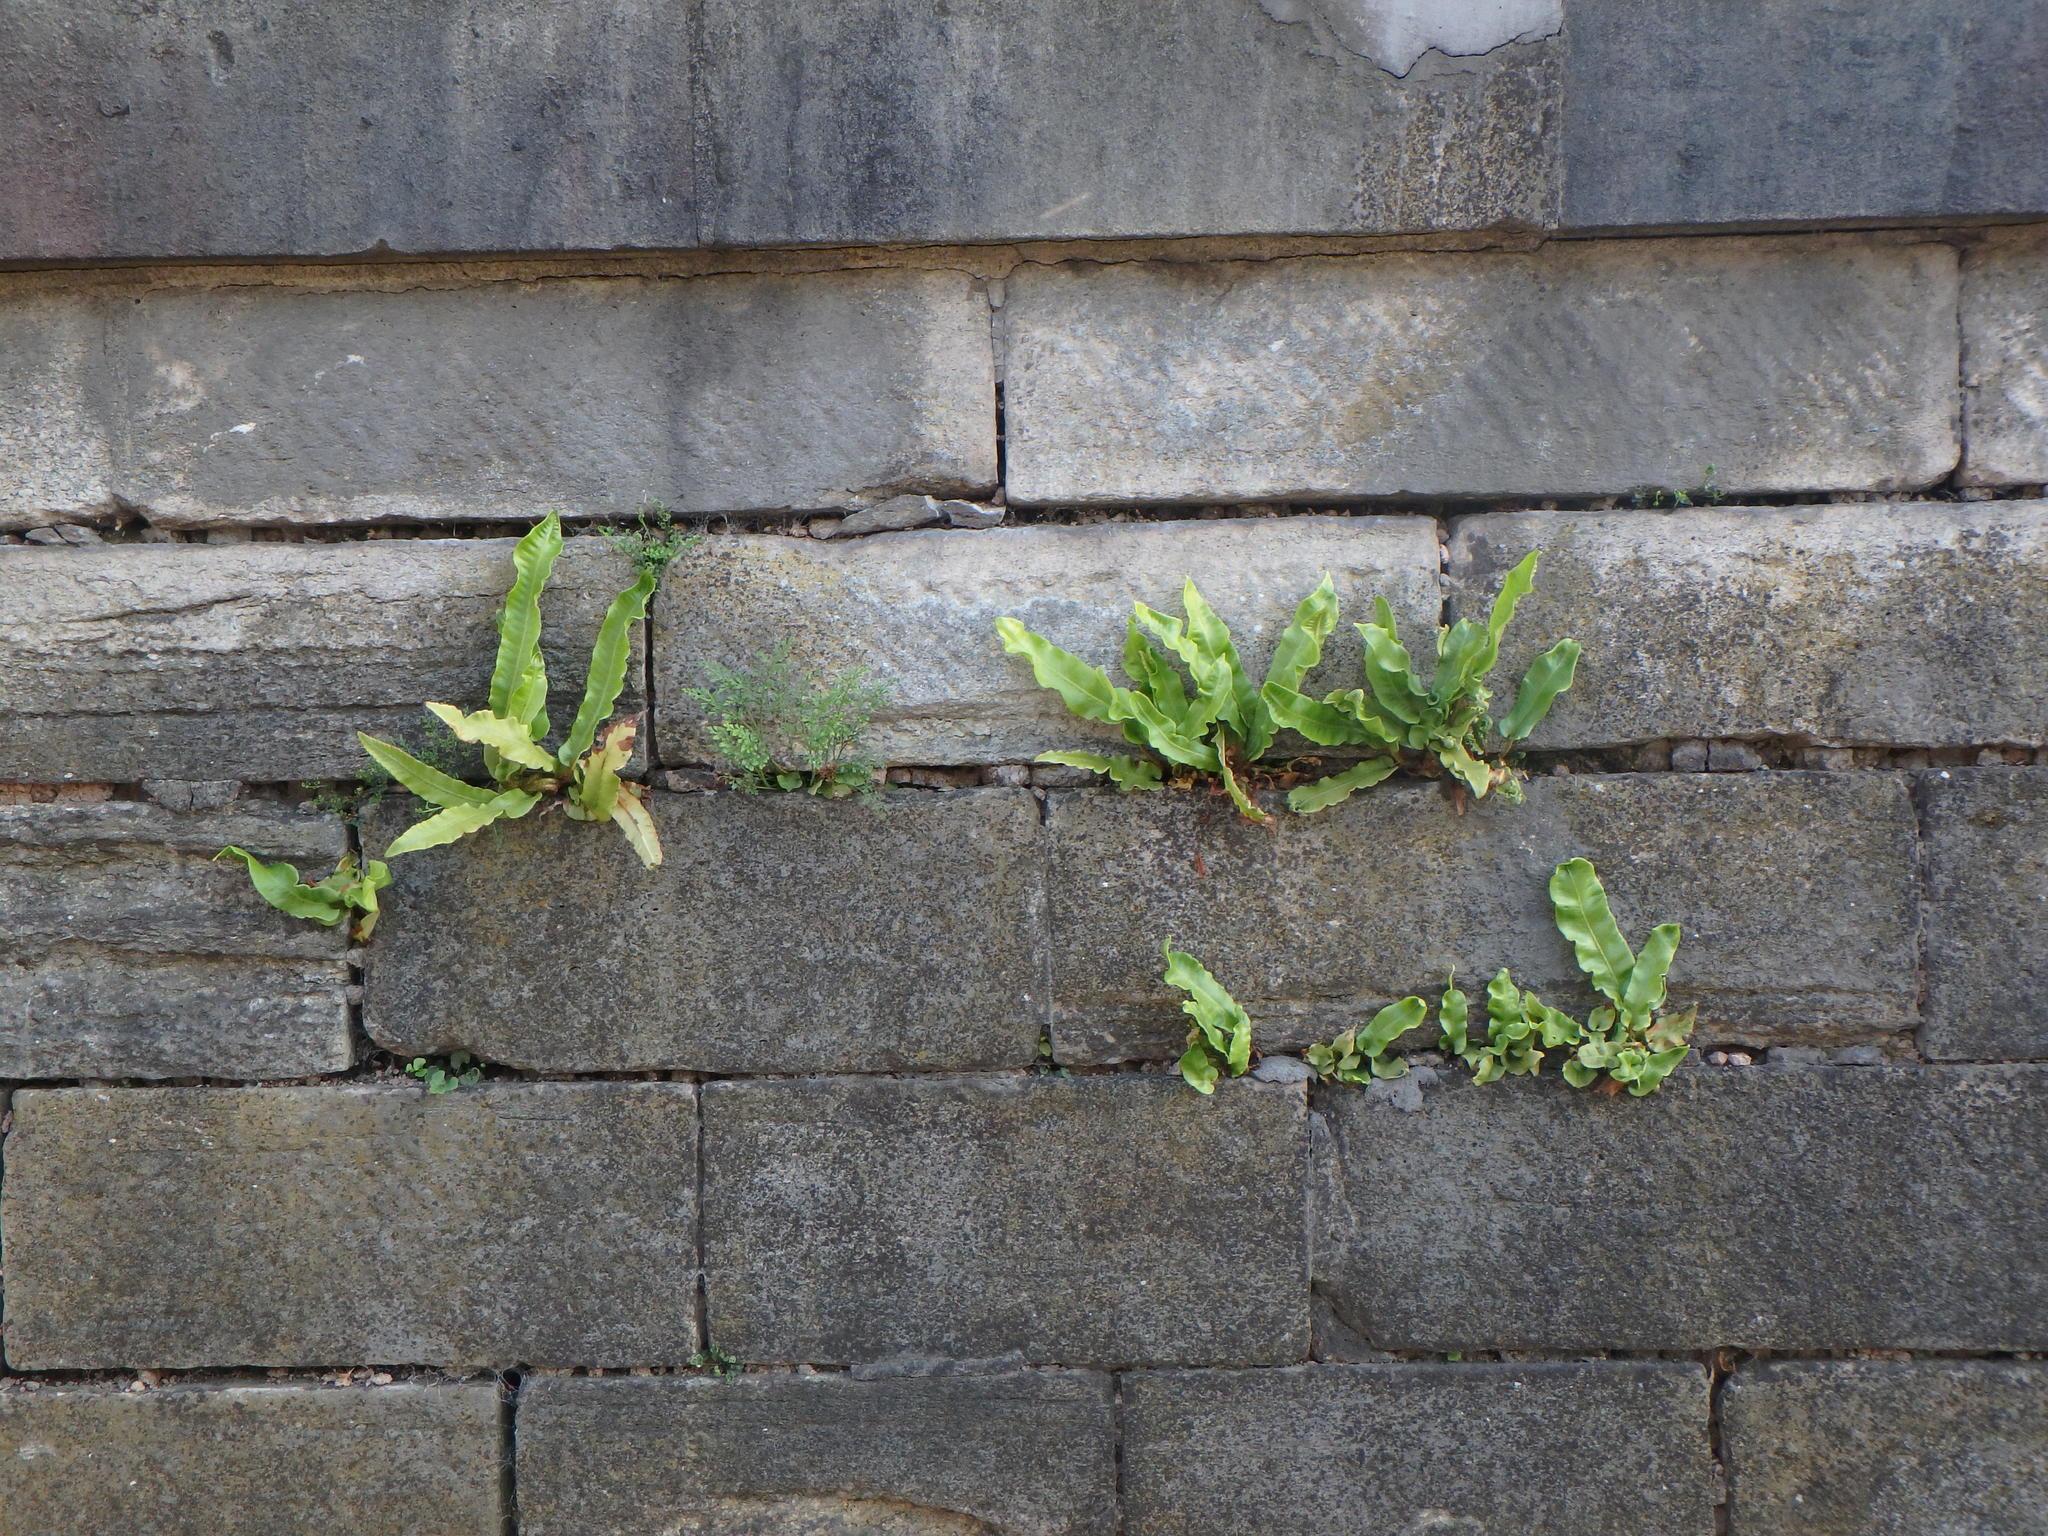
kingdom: Plantae
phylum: Tracheophyta
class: Polypodiopsida
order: Polypodiales
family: Aspleniaceae
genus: Asplenium
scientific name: Asplenium scolopendrium
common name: Hart's-tongue fern
